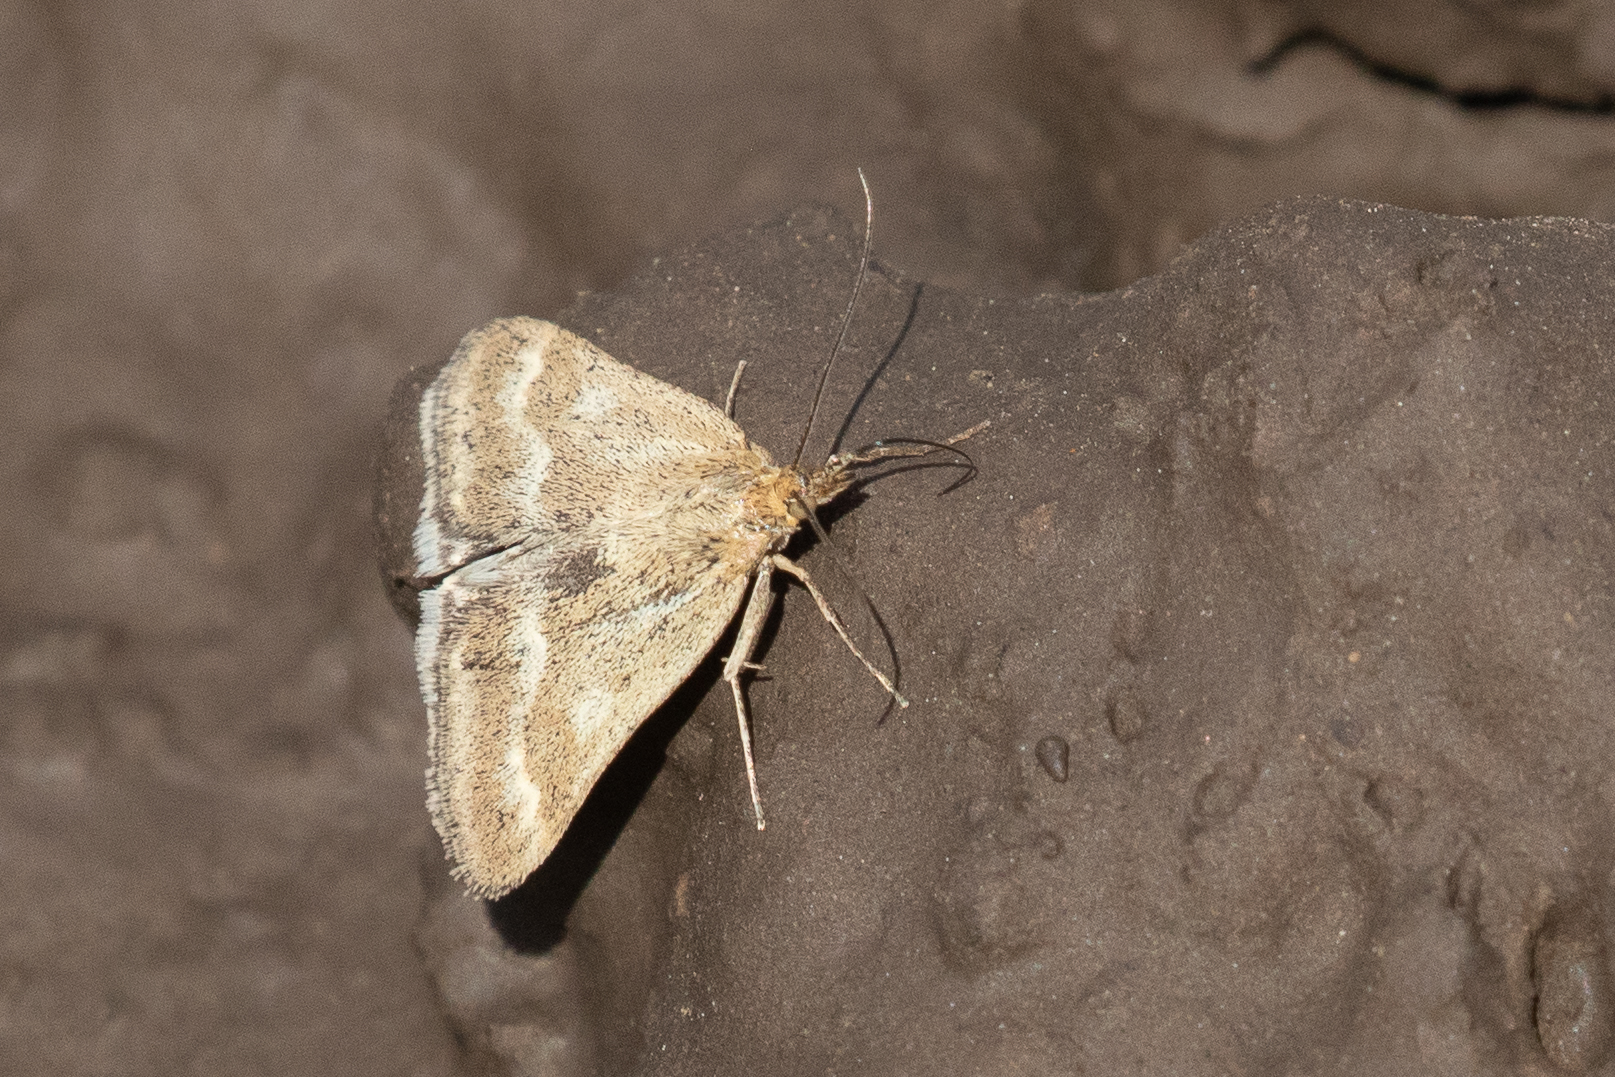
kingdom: Animalia
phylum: Arthropoda
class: Insecta
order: Lepidoptera
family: Crambidae
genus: Pyrausta
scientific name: Pyrausta unifascialis
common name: One-banded pyrausta
